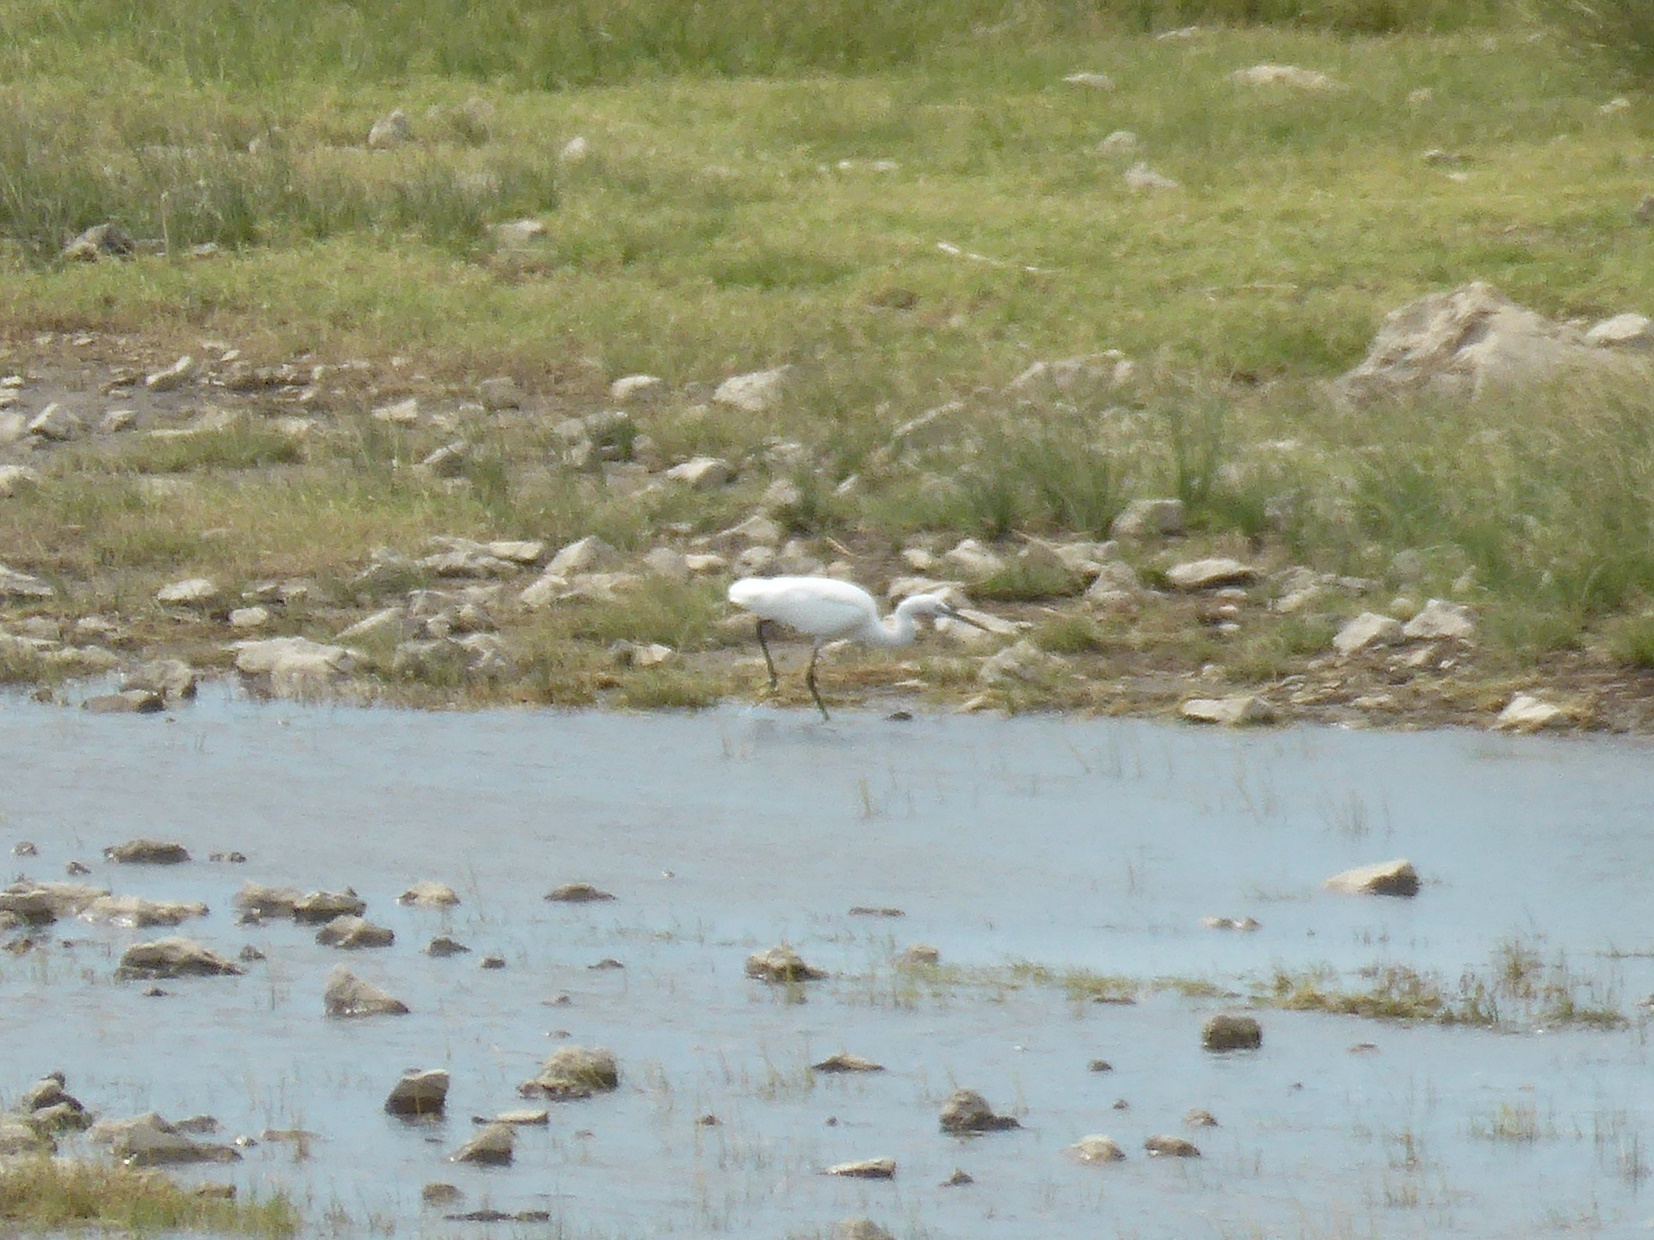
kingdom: Animalia
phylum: Chordata
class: Aves
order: Pelecaniformes
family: Ardeidae
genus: Egretta
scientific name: Egretta garzetta
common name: Little egret
